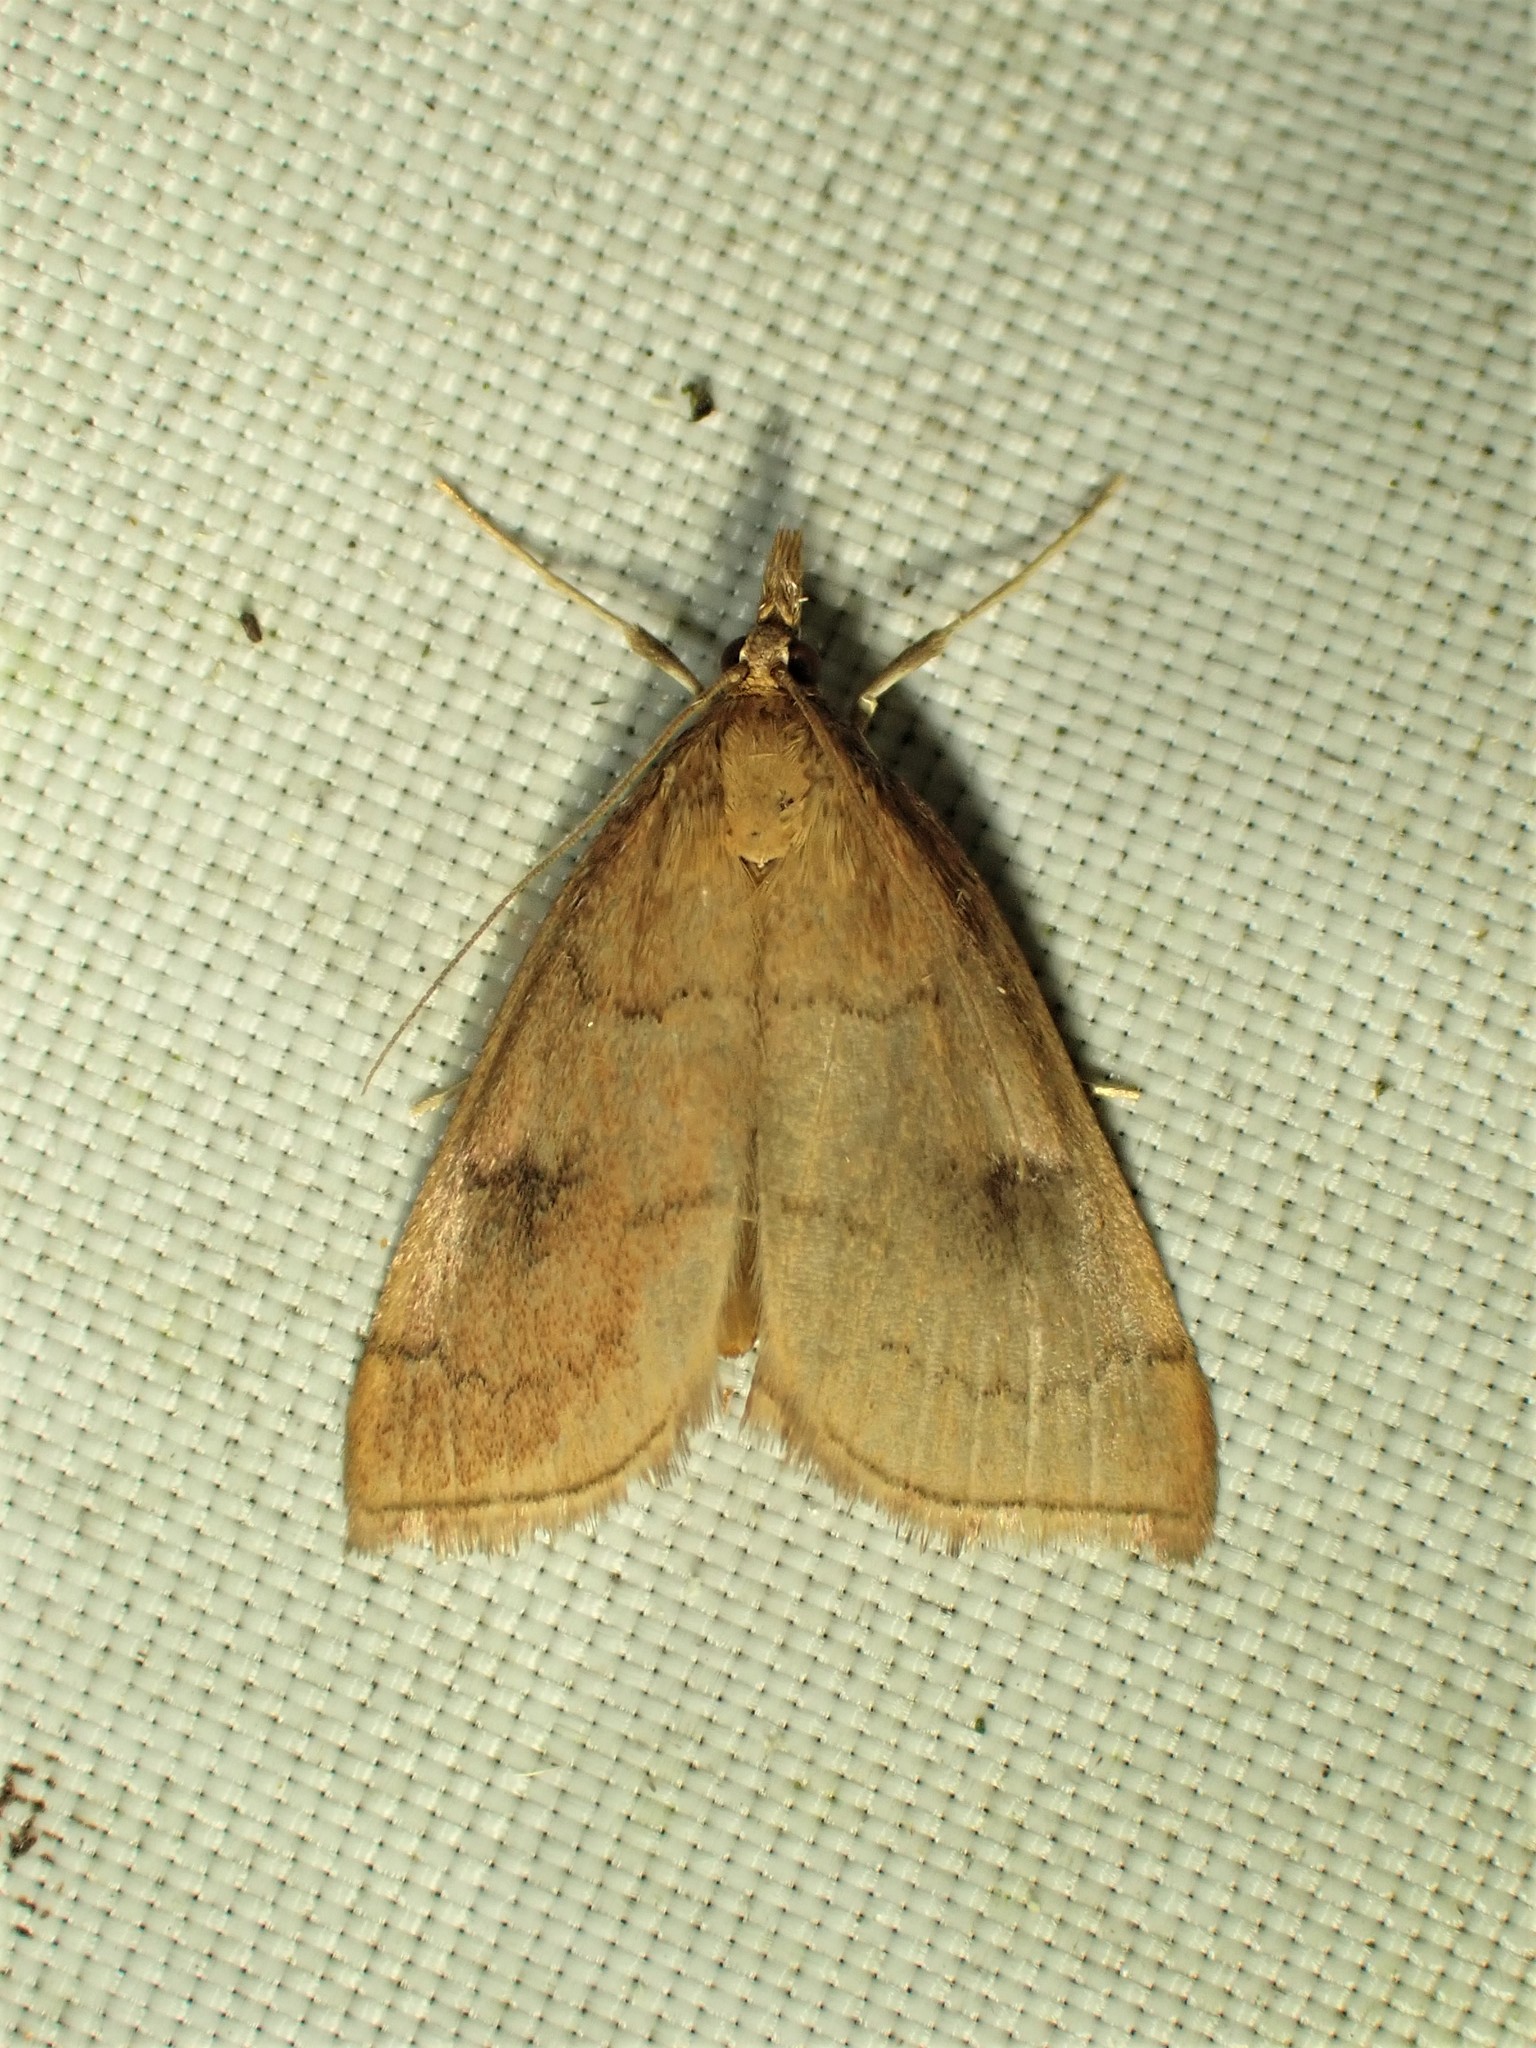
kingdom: Animalia
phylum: Arthropoda
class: Insecta
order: Lepidoptera
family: Crambidae
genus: Fumibotys
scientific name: Fumibotys fumalis
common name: Mint root borer moth
